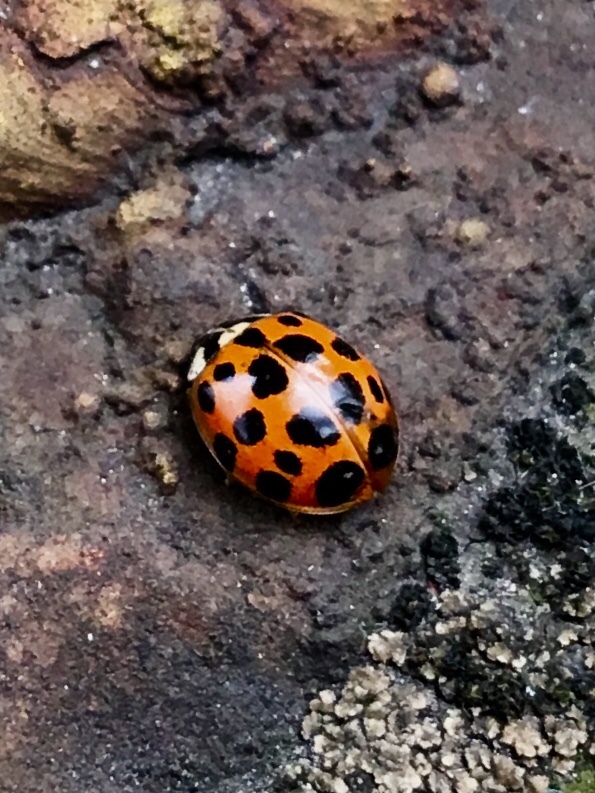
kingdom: Animalia
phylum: Arthropoda
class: Insecta
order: Coleoptera
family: Coccinellidae
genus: Harmonia
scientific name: Harmonia axyridis
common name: Harlequin ladybird
